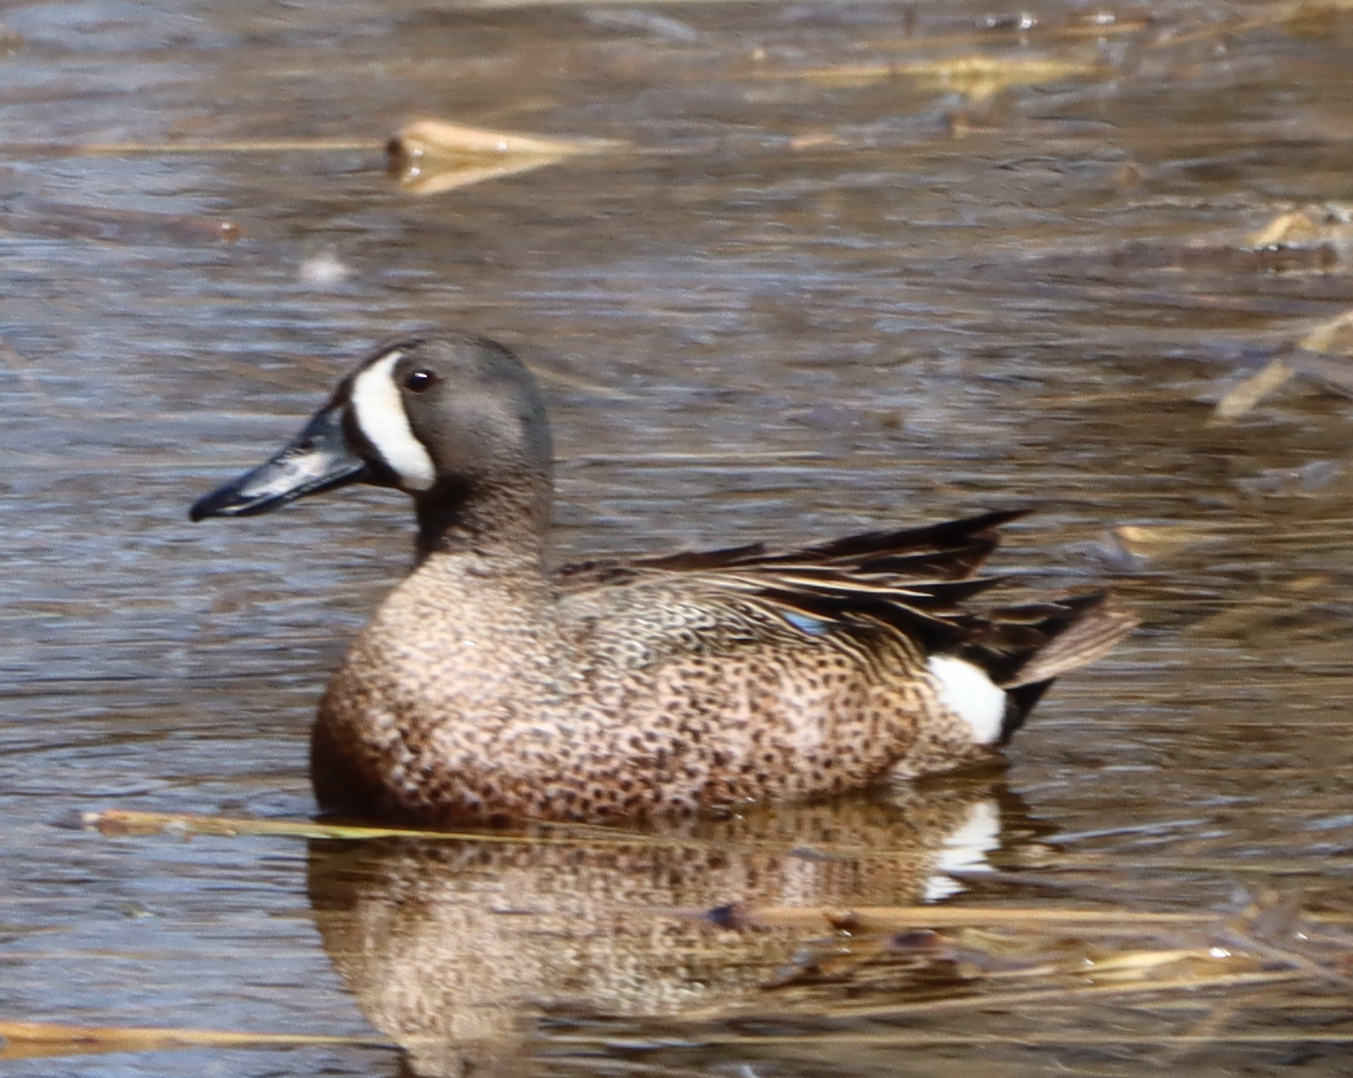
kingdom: Animalia
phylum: Chordata
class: Aves
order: Anseriformes
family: Anatidae
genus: Spatula
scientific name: Spatula discors
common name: Blue-winged teal
